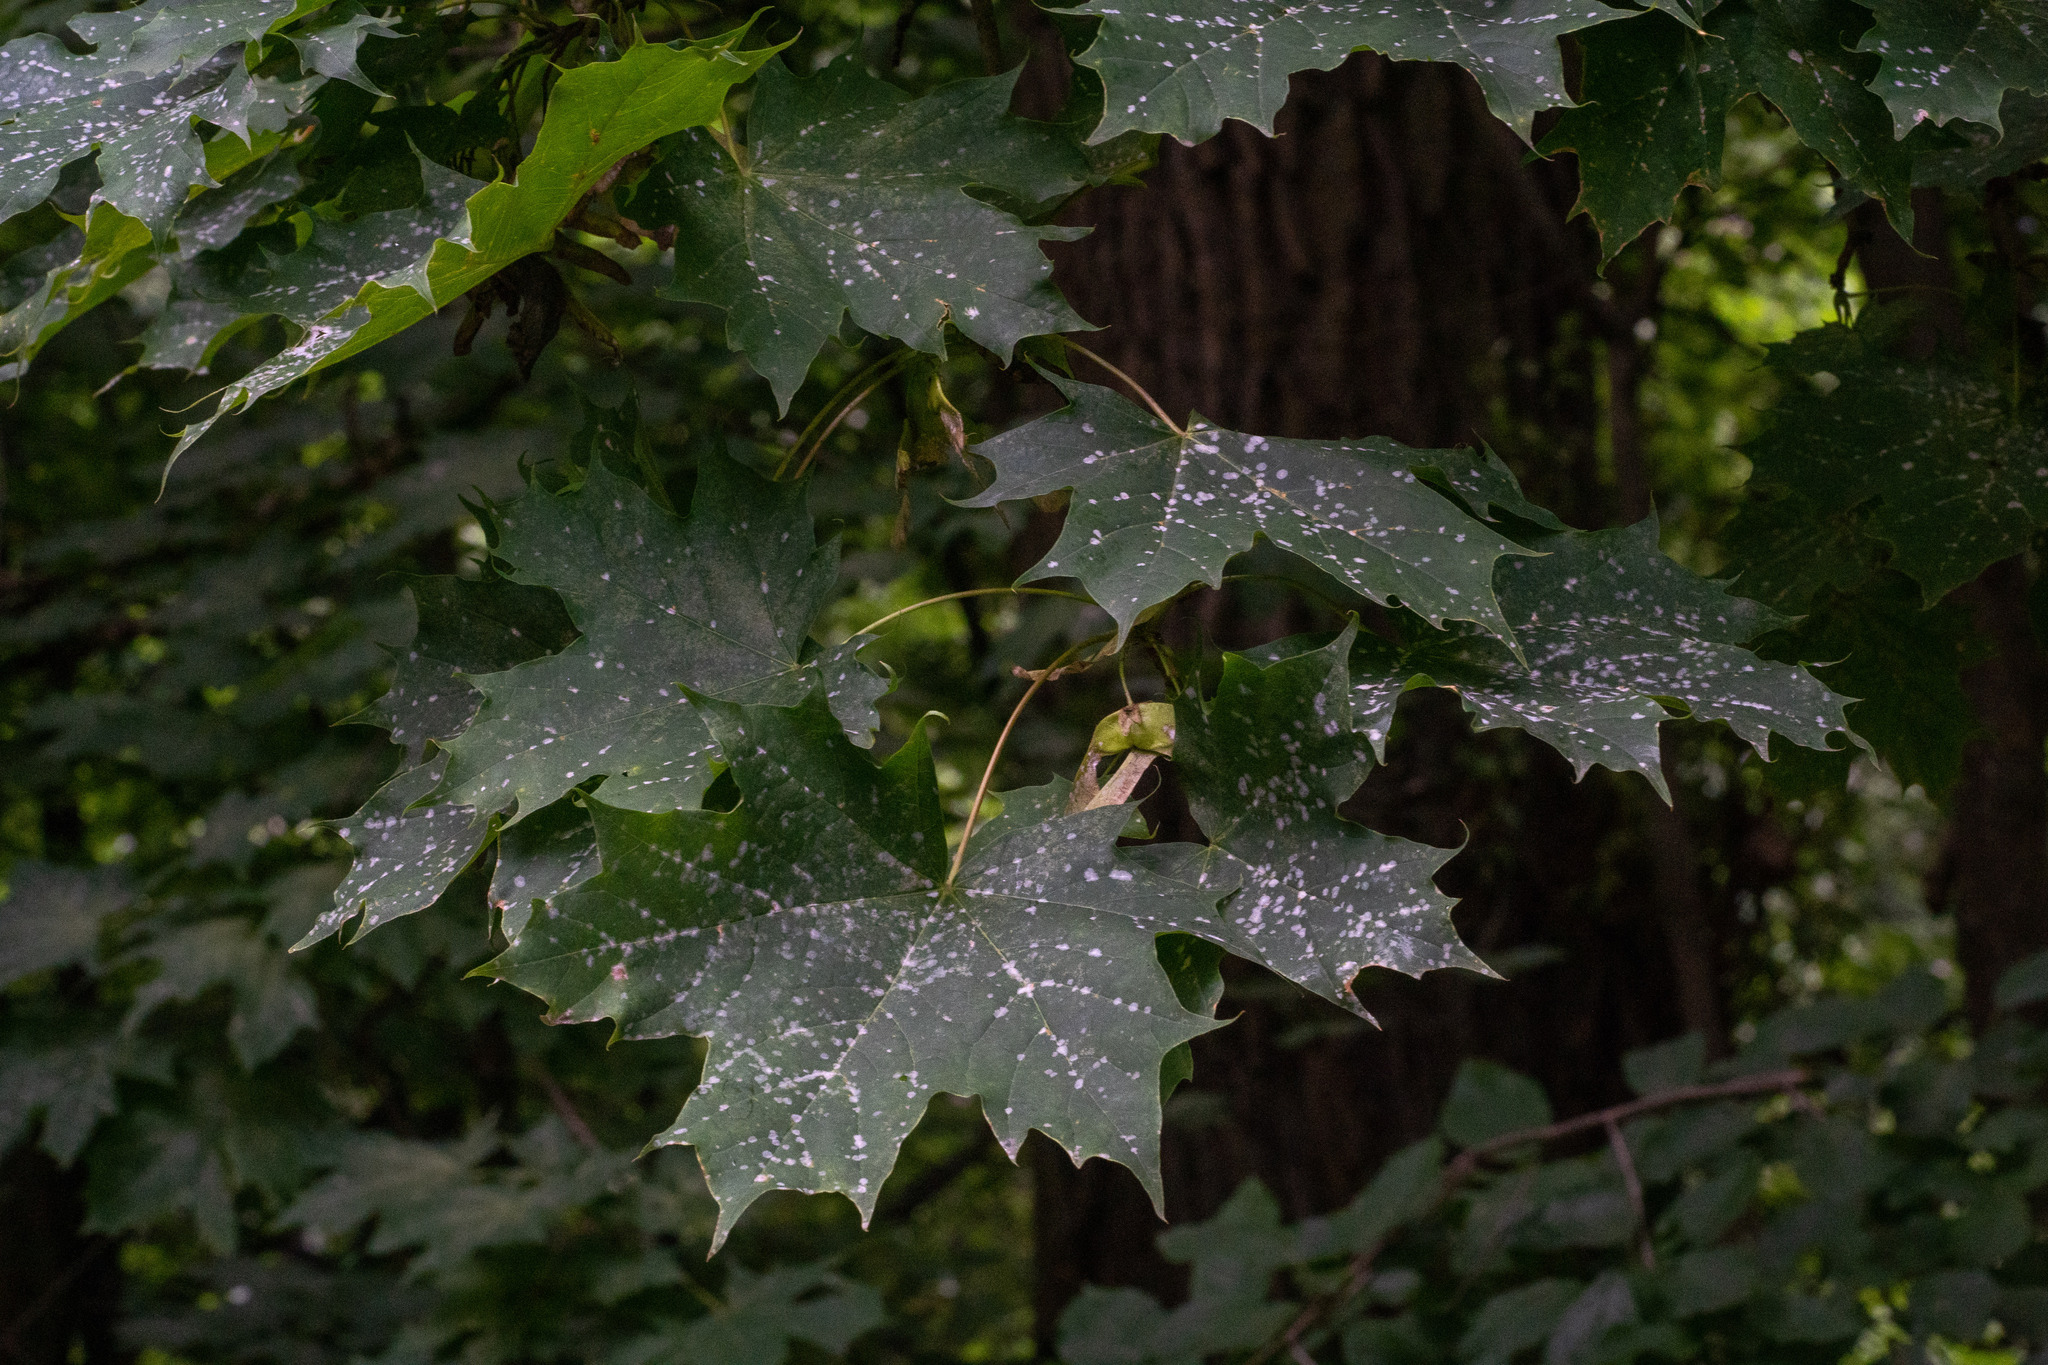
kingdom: Plantae
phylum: Tracheophyta
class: Magnoliopsida
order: Sapindales
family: Sapindaceae
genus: Acer
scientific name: Acer platanoides
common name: Norway maple
